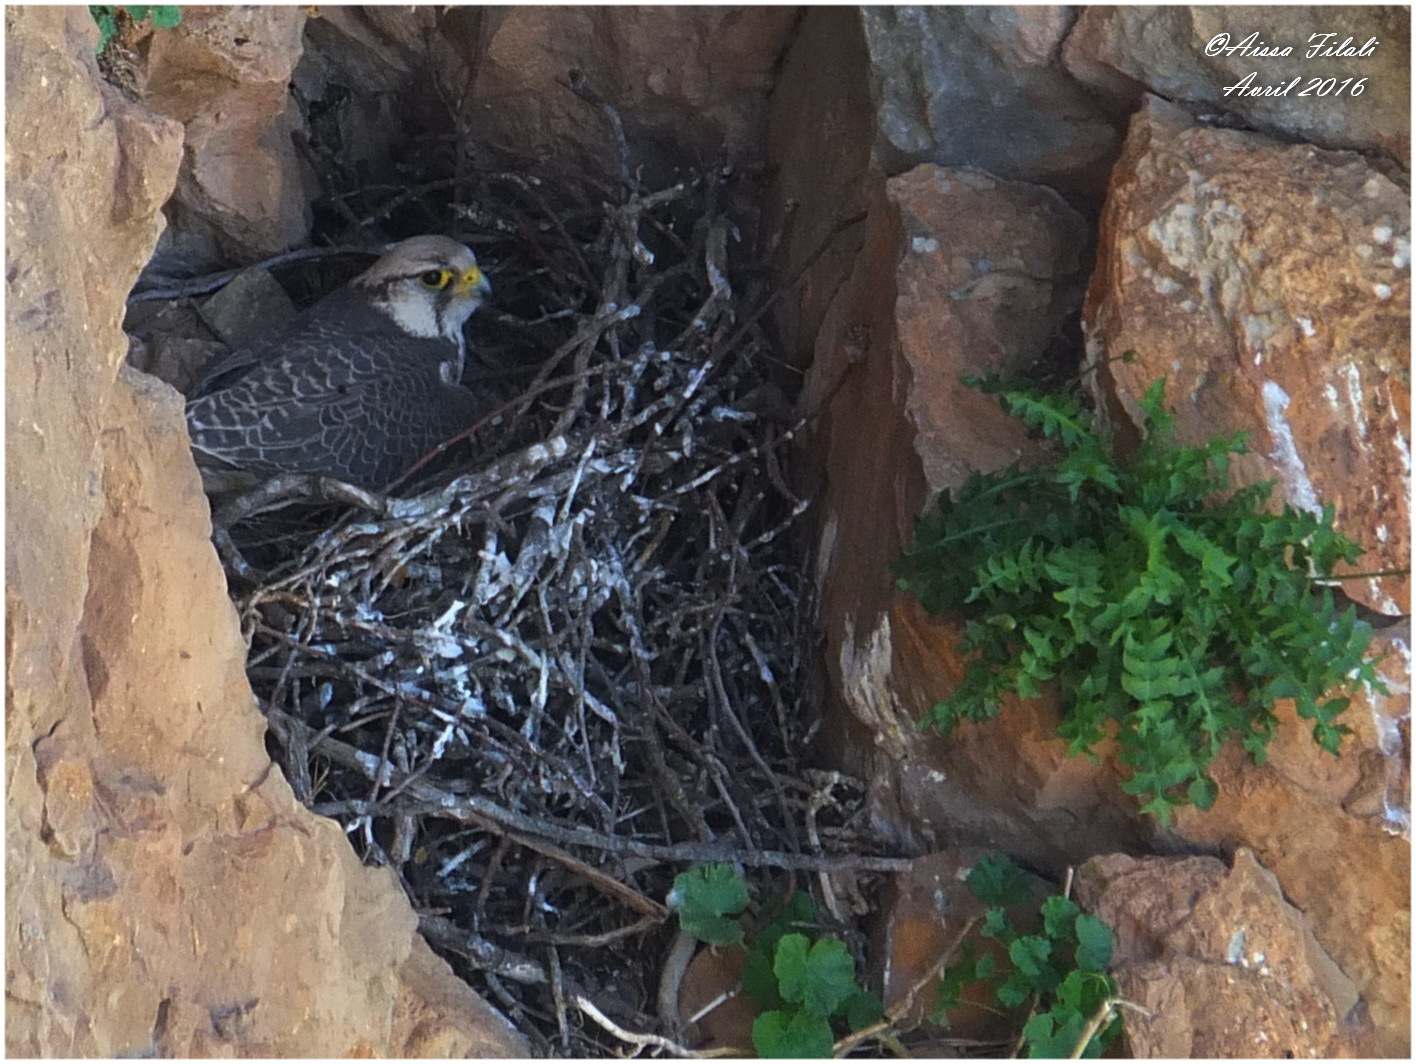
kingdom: Animalia
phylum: Chordata
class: Aves
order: Falconiformes
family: Falconidae
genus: Falco
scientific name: Falco biarmicus
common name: Lanner falcon
